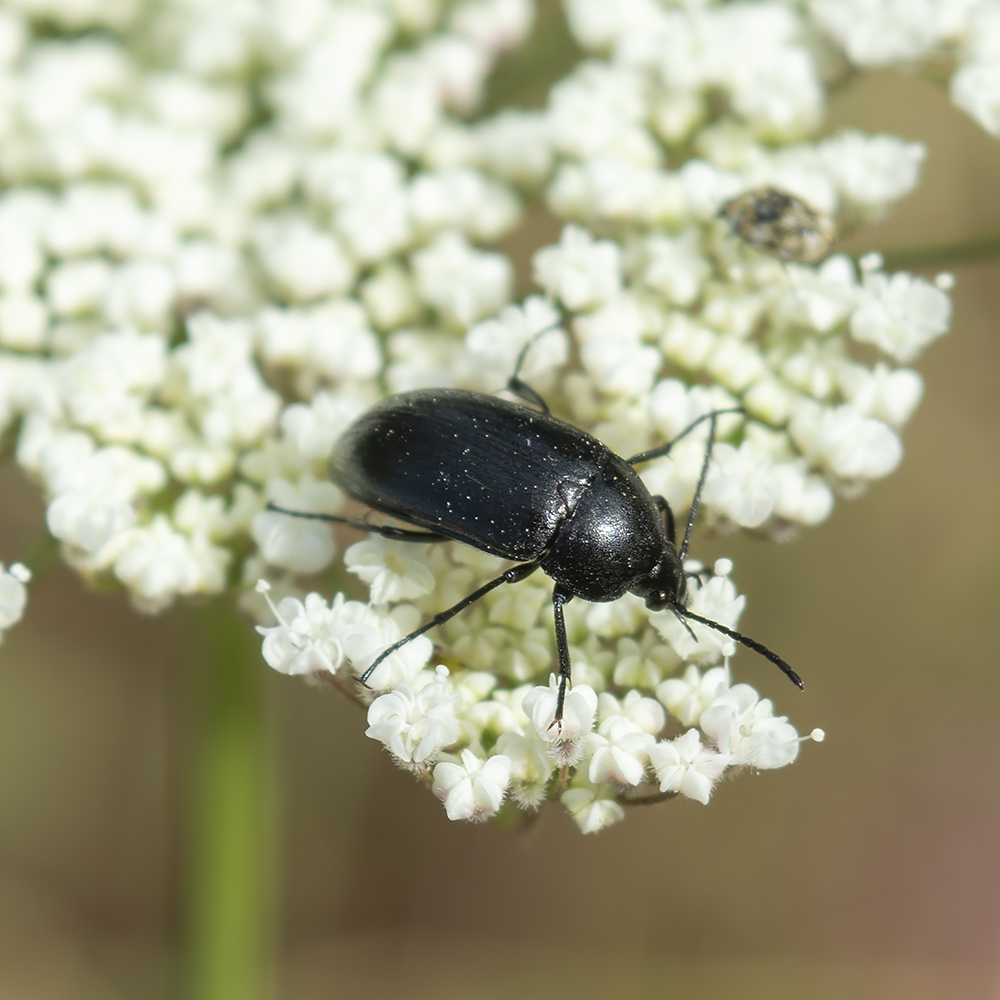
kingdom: Animalia
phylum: Arthropoda
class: Insecta
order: Coleoptera
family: Tenebrionidae
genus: Podonta
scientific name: Podonta aubei
